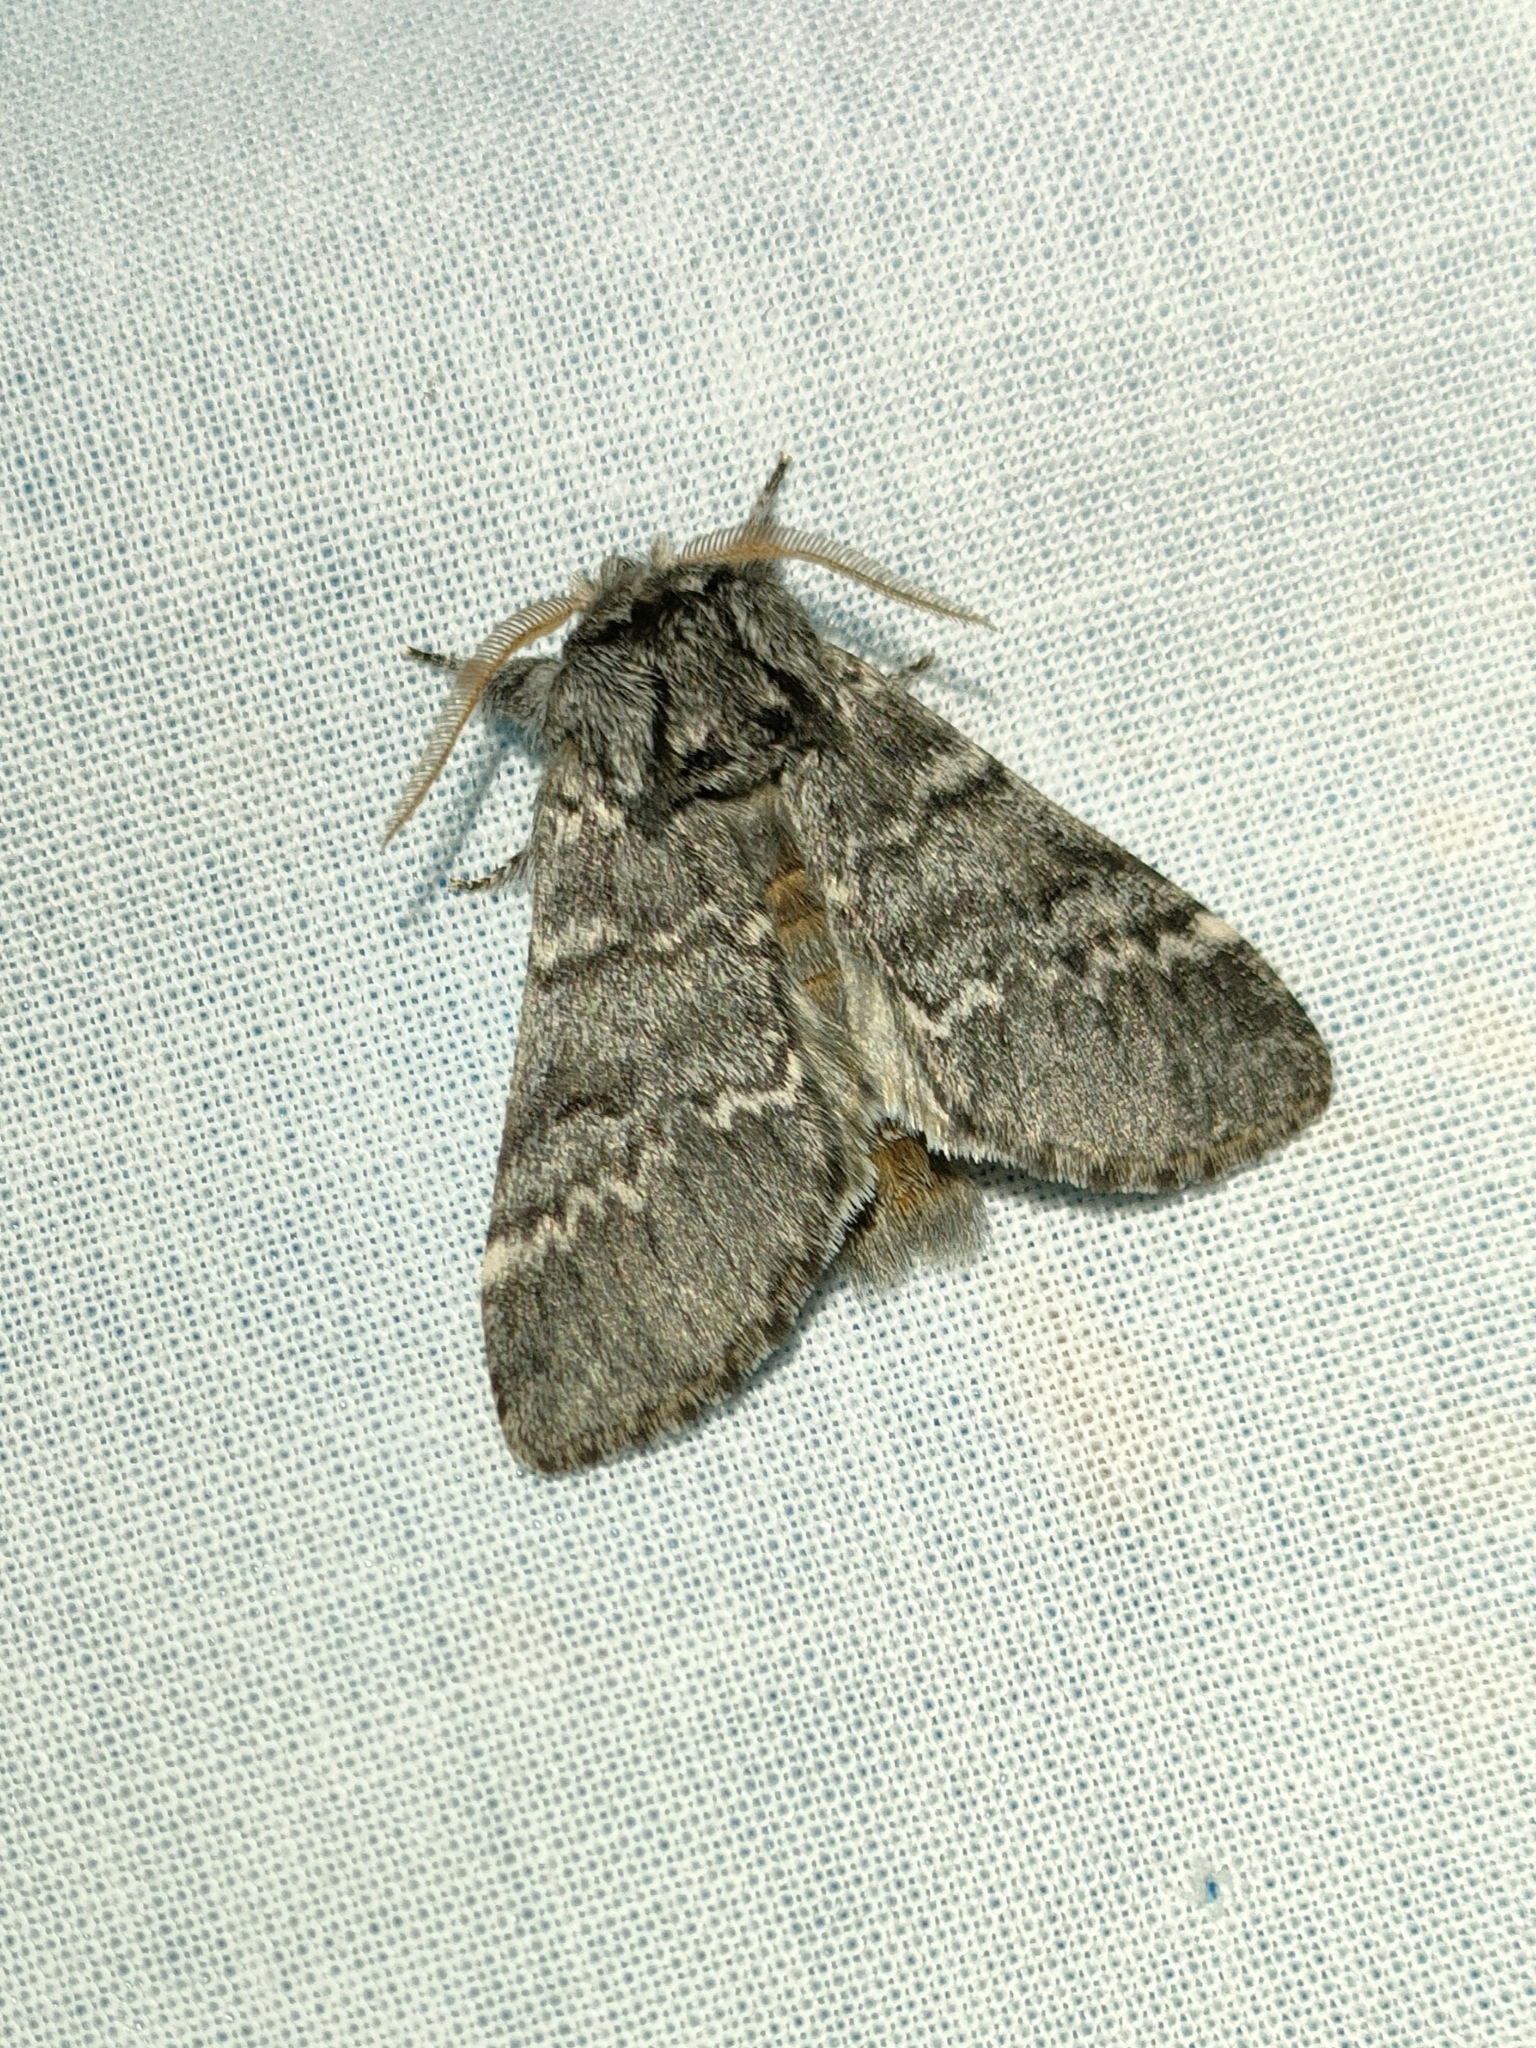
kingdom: Animalia
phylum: Arthropoda
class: Insecta
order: Lepidoptera
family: Notodontidae
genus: Drymonia
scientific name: Drymonia ruficornis
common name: Lunar marbled brown
